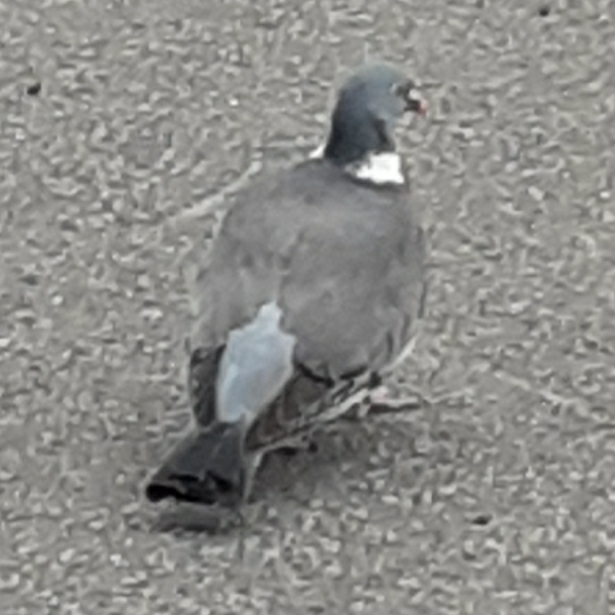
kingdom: Animalia
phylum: Chordata
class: Aves
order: Columbiformes
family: Columbidae
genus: Columba
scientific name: Columba palumbus
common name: Common wood pigeon
